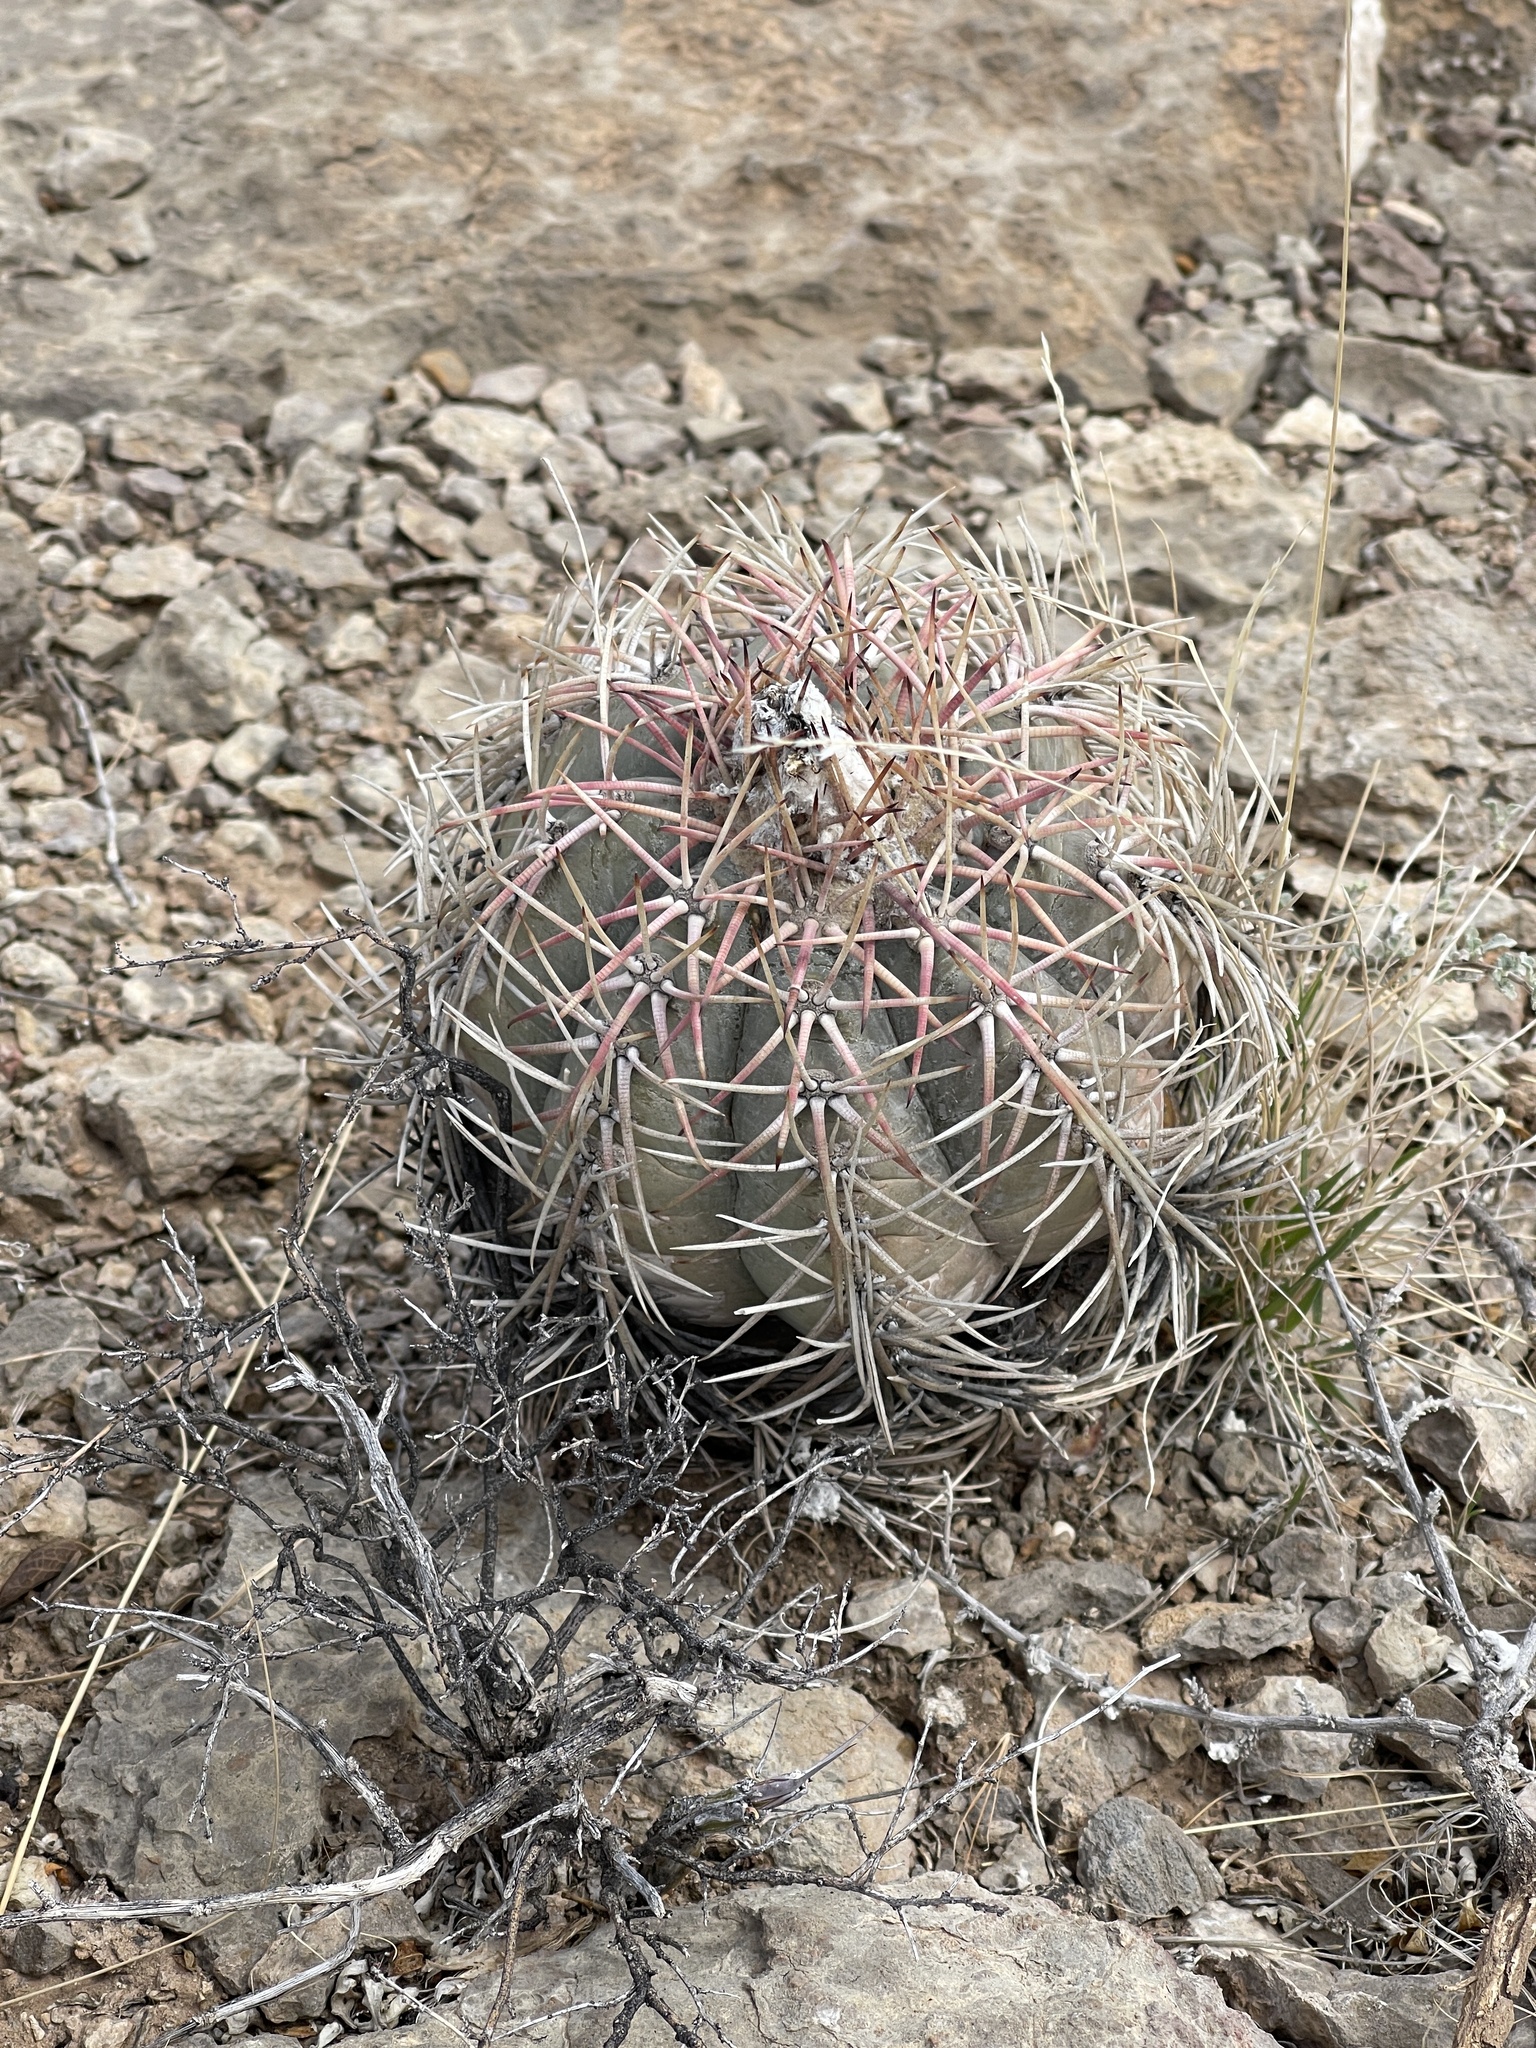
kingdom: Plantae
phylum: Tracheophyta
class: Magnoliopsida
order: Caryophyllales
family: Cactaceae
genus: Echinocactus
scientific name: Echinocactus horizonthalonius
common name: Devilshead
